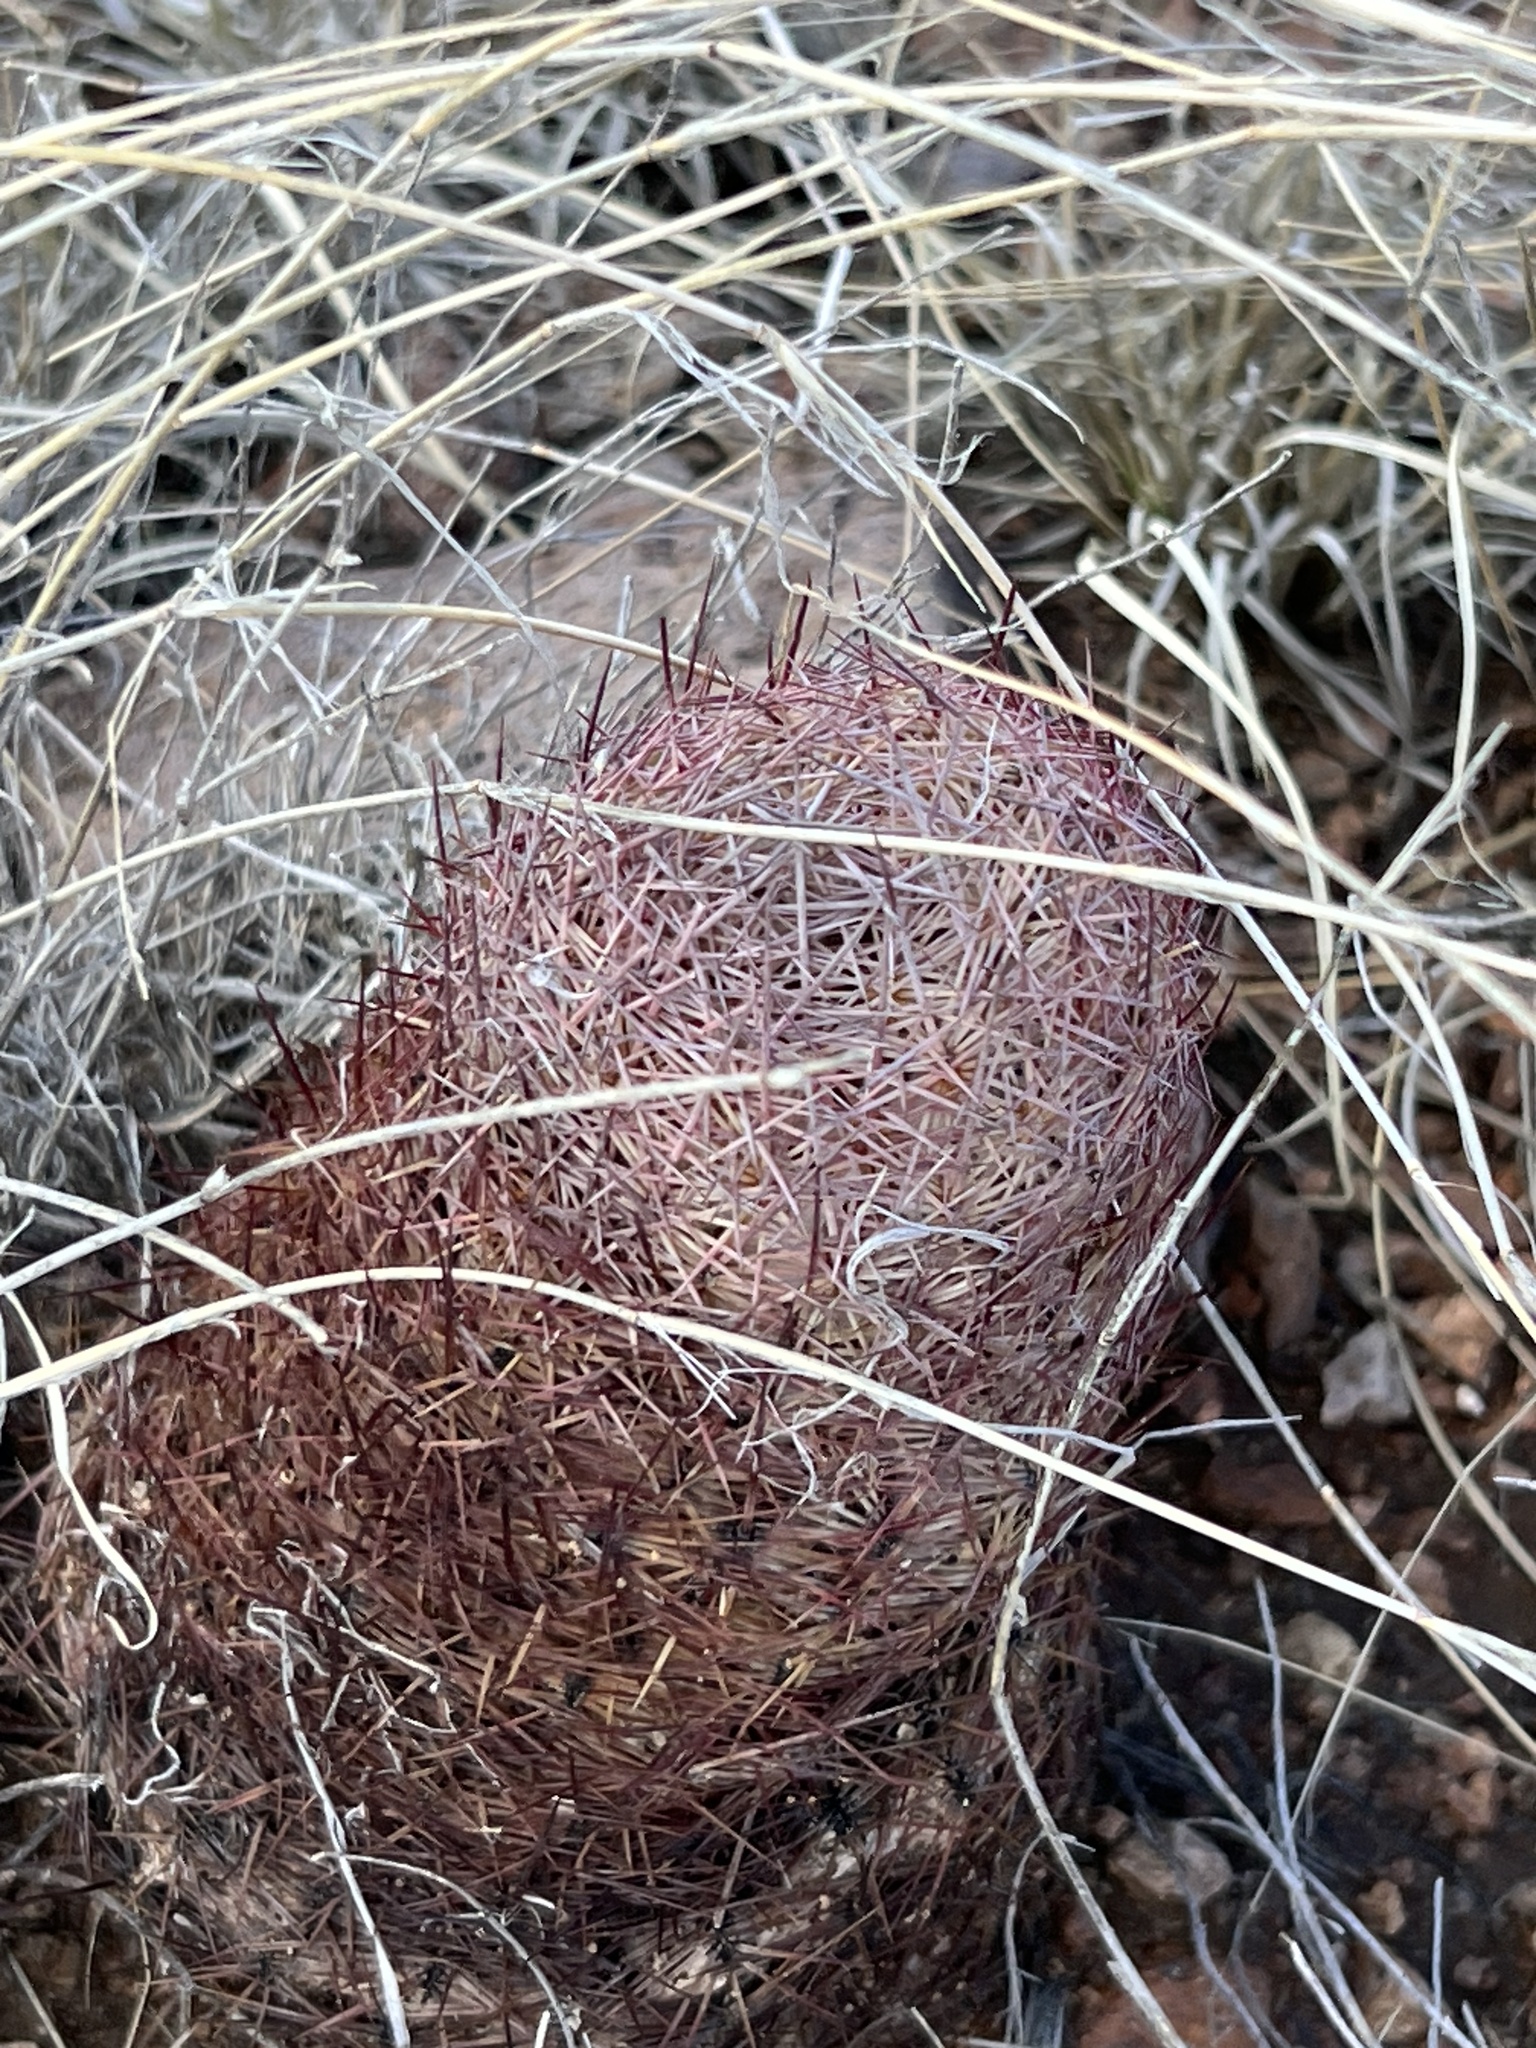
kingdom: Plantae
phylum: Tracheophyta
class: Magnoliopsida
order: Caryophyllales
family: Cactaceae
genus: Sclerocactus
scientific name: Sclerocactus johnsonii
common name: Eight-spine fishhook cactus
